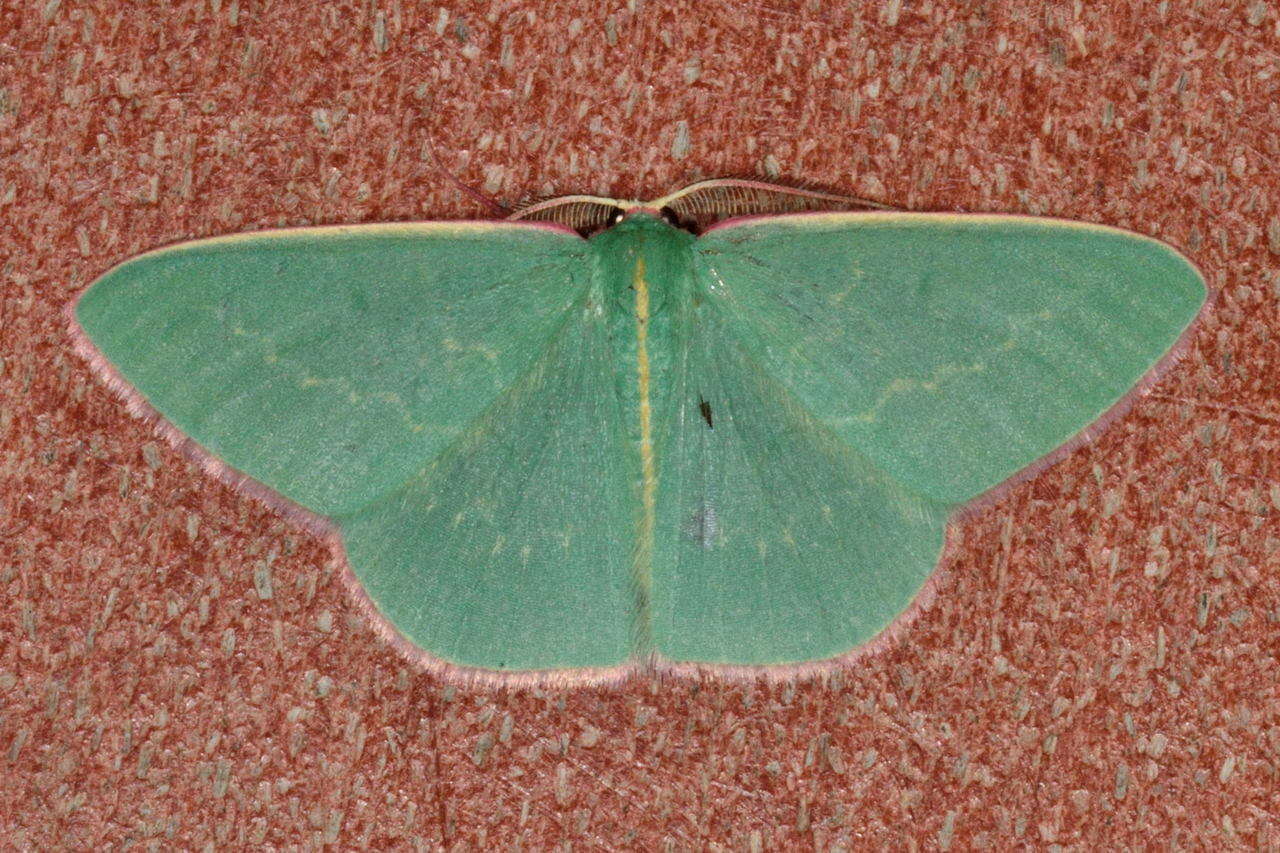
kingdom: Animalia
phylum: Arthropoda
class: Insecta
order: Lepidoptera
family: Geometridae
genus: Chlorocoma
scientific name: Chlorocoma dichloraria
